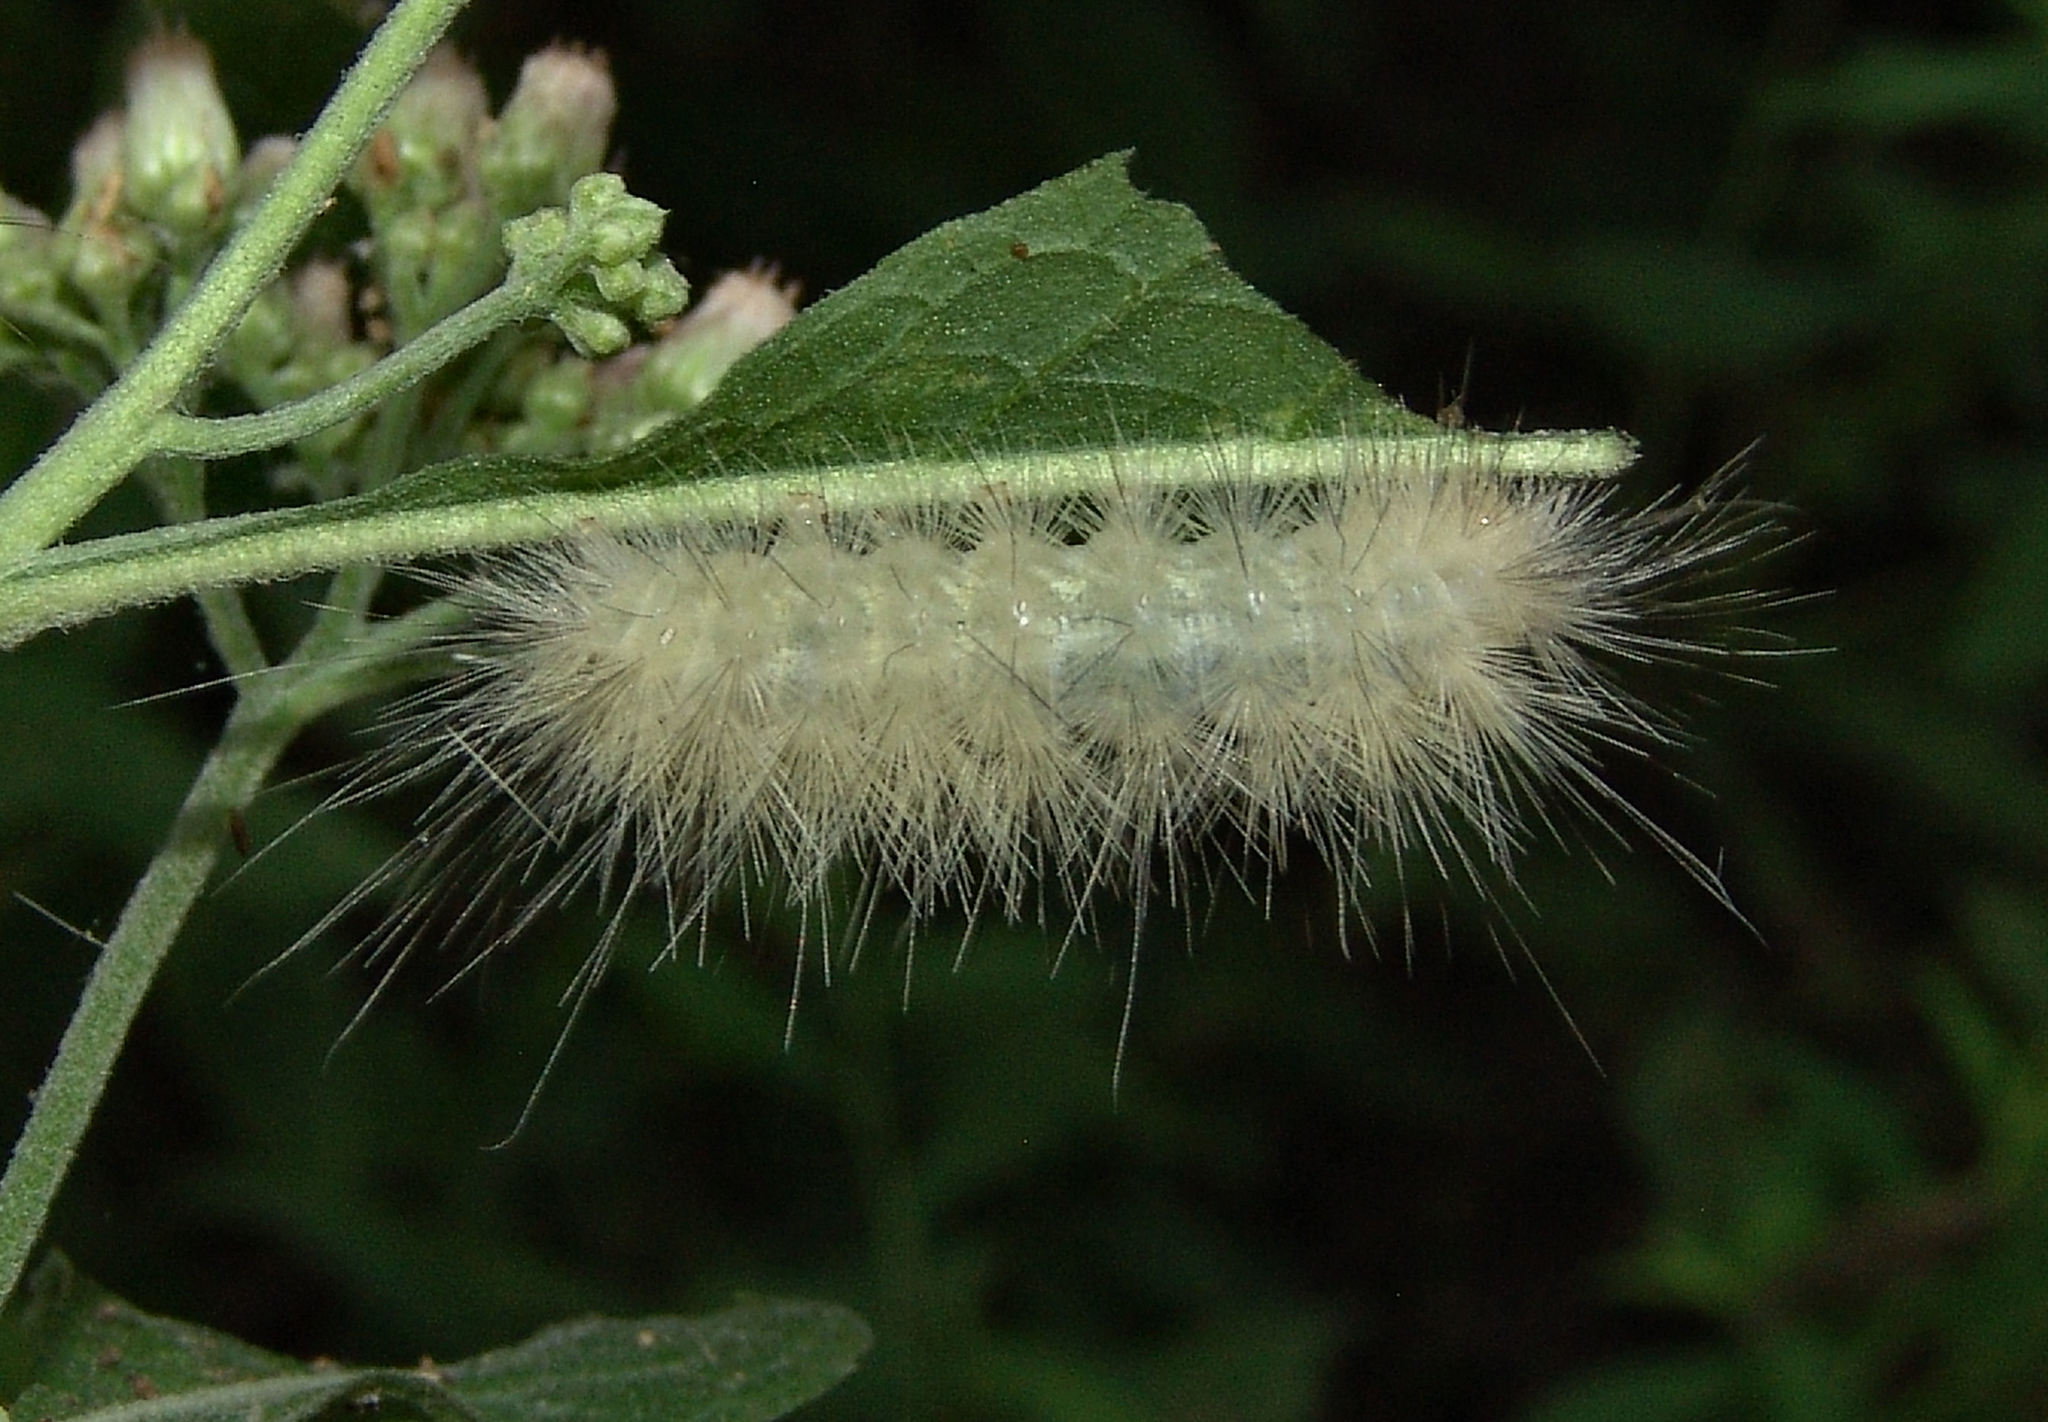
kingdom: Animalia
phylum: Arthropoda
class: Insecta
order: Lepidoptera
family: Erebidae
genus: Spilosoma
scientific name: Spilosoma virginica
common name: Virginia tiger moth
